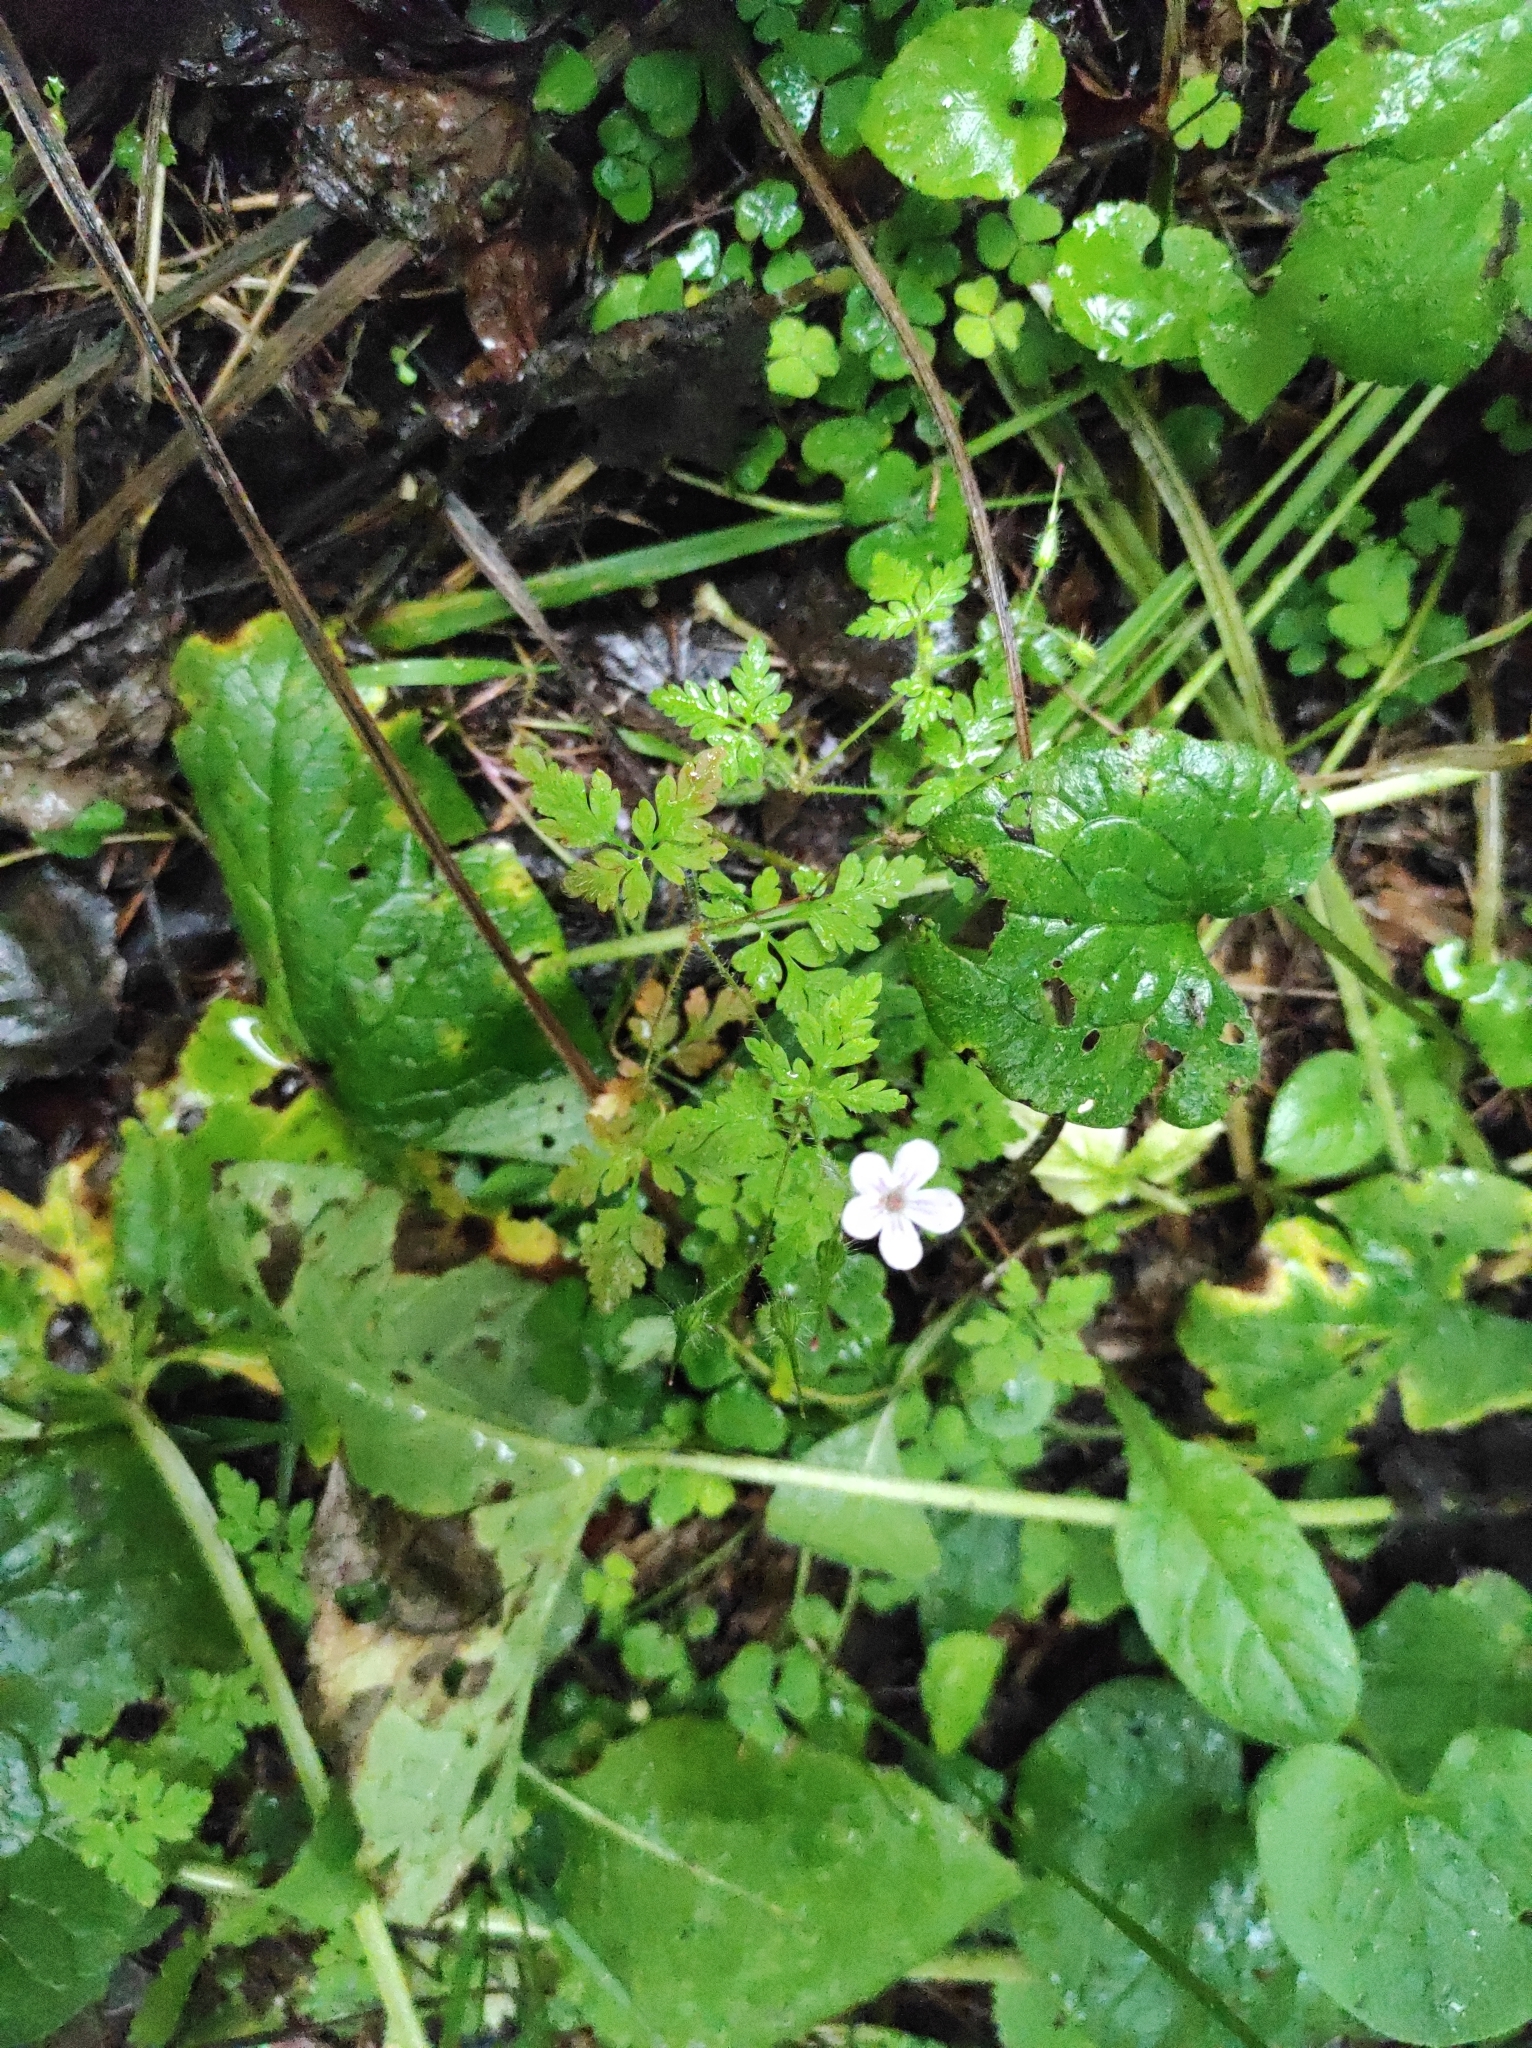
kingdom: Plantae
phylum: Tracheophyta
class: Magnoliopsida
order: Geraniales
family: Geraniaceae
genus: Geranium
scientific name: Geranium robertianum
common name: Herb-robert
